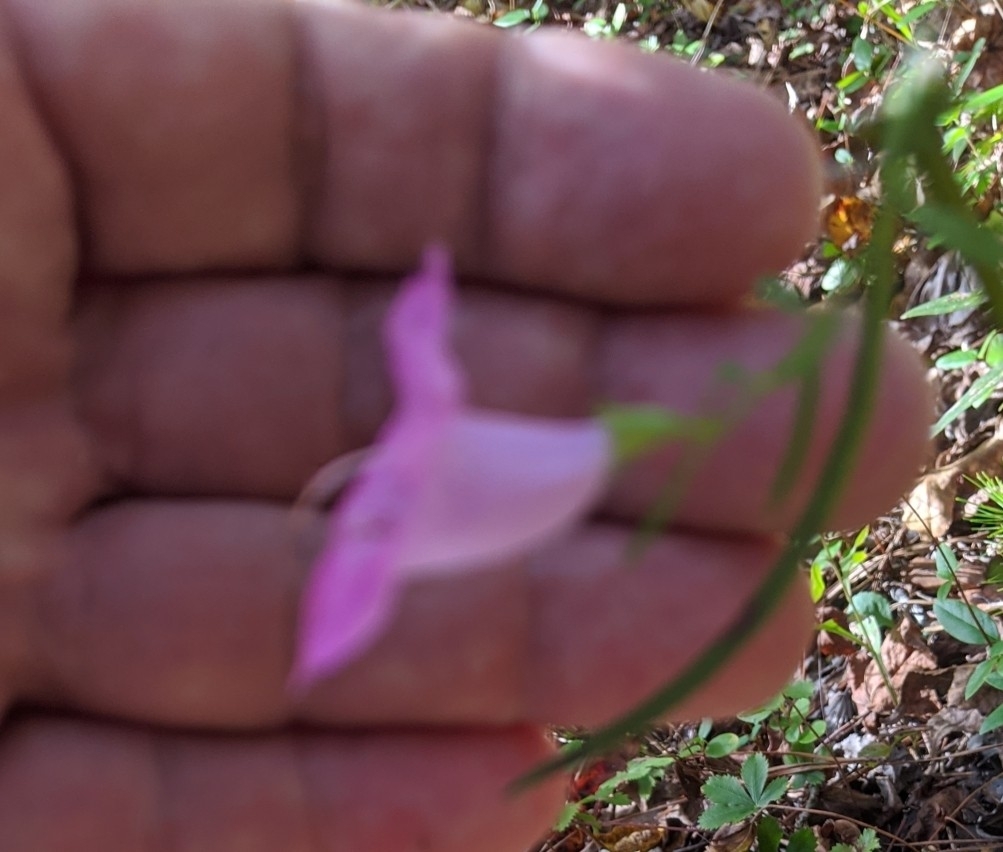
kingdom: Plantae
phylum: Tracheophyta
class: Magnoliopsida
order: Lamiales
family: Orobanchaceae
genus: Agalinis
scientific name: Agalinis purpurea
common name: Purple false foxglove
